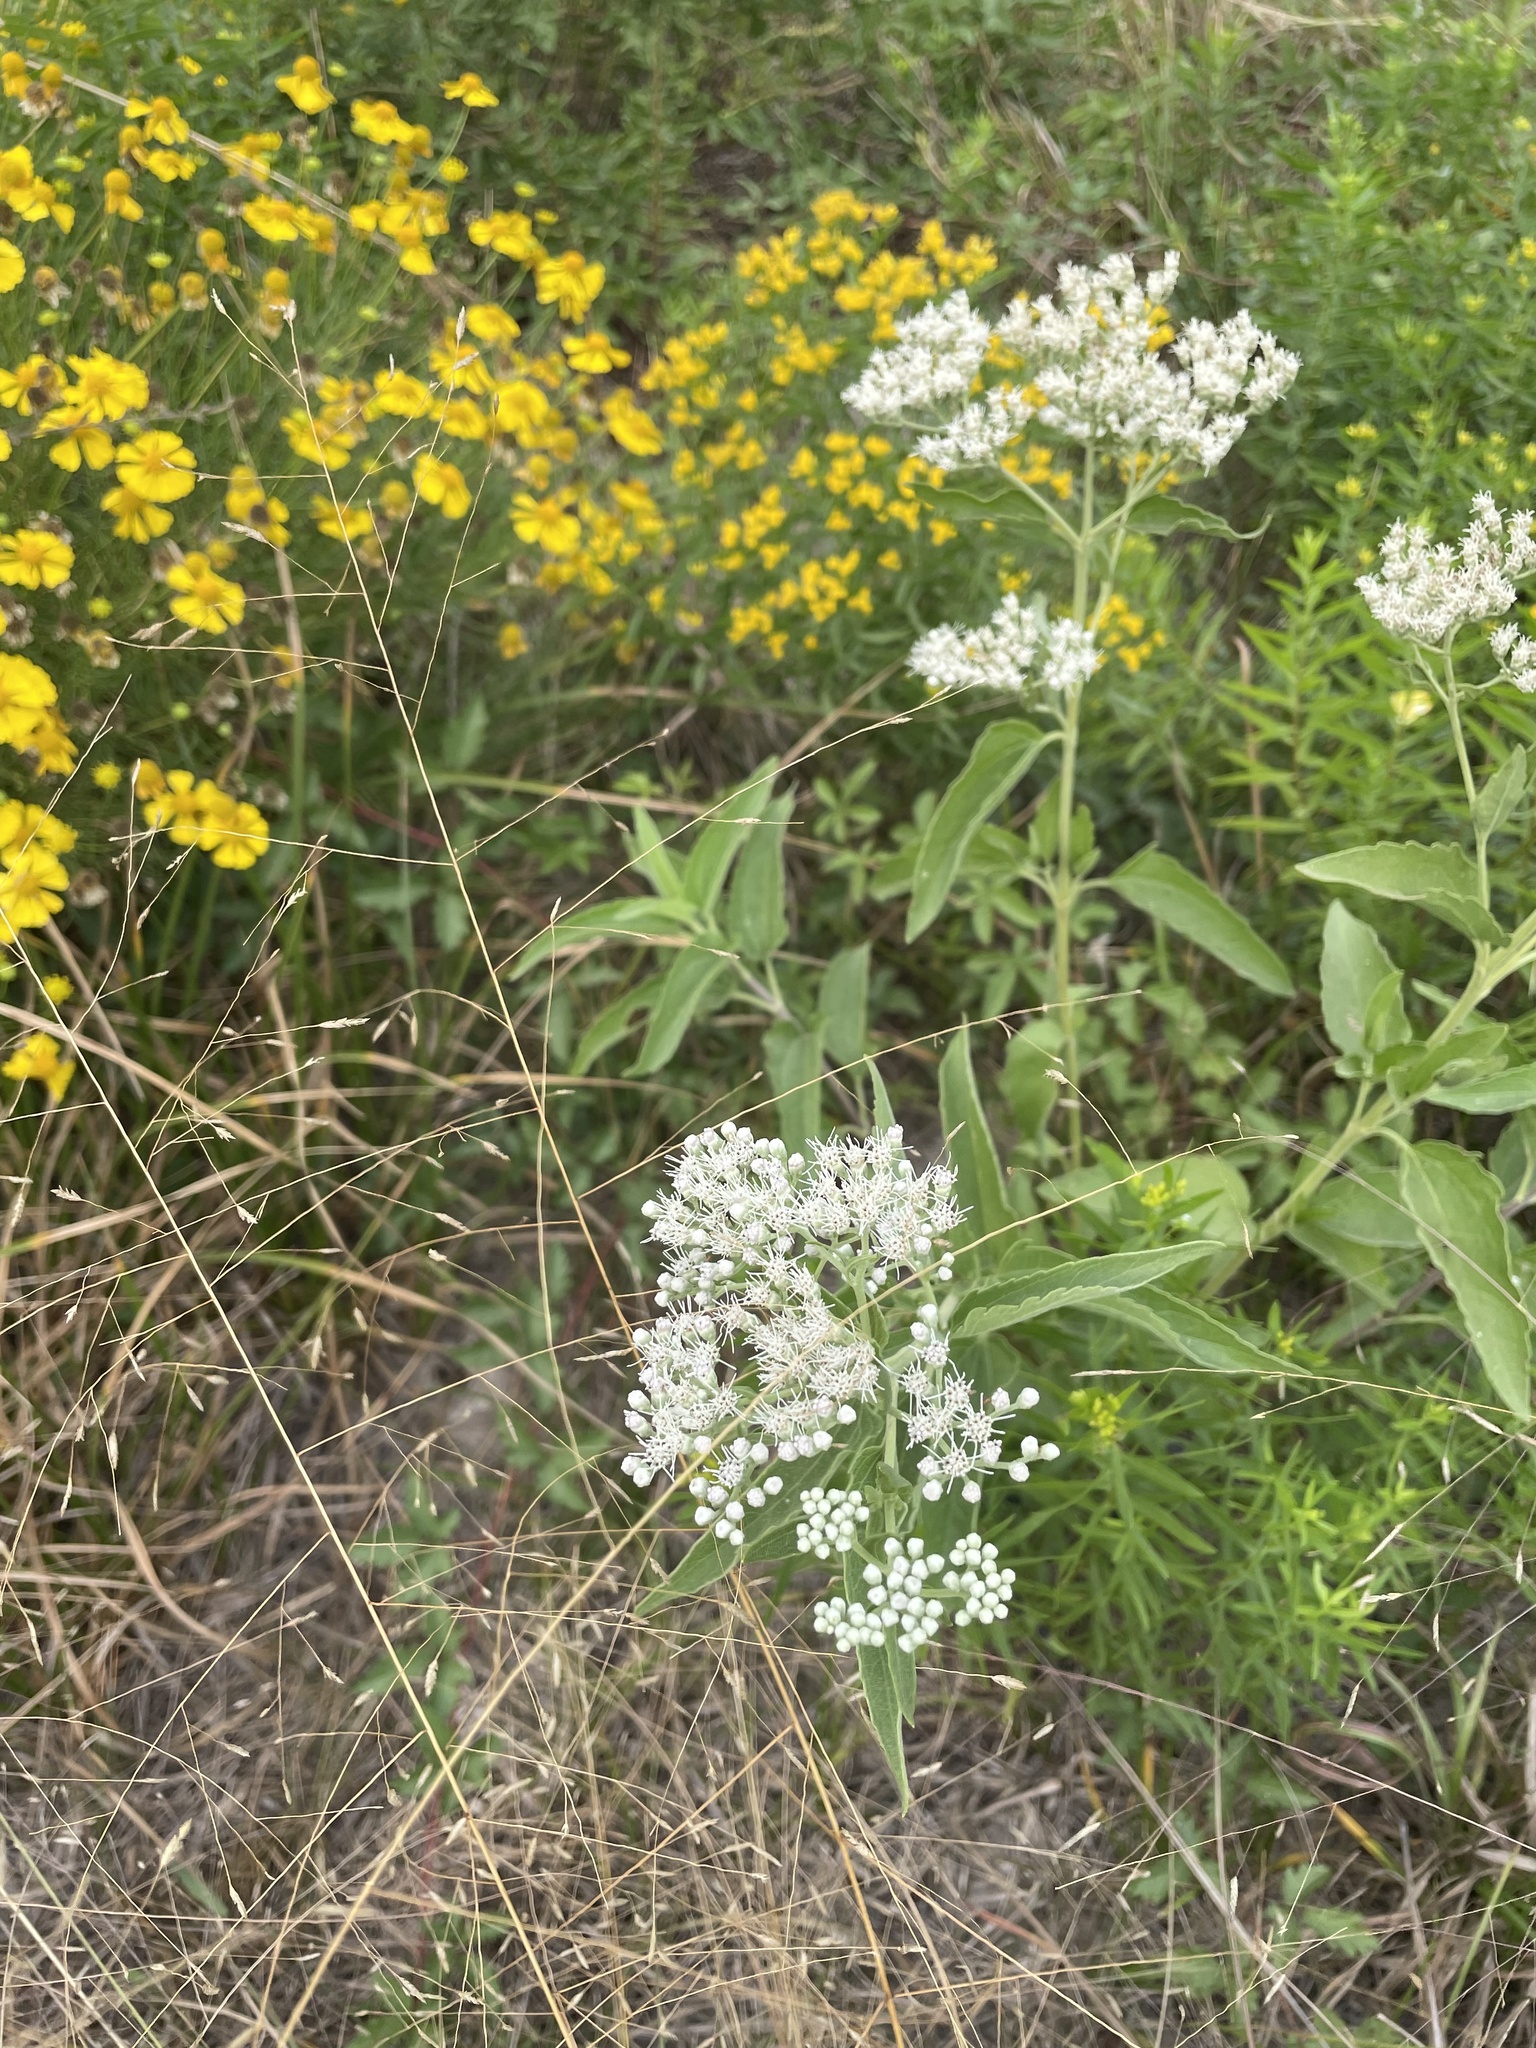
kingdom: Plantae
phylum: Tracheophyta
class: Magnoliopsida
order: Asterales
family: Asteraceae
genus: Eupatorium
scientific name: Eupatorium serotinum
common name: Late boneset
